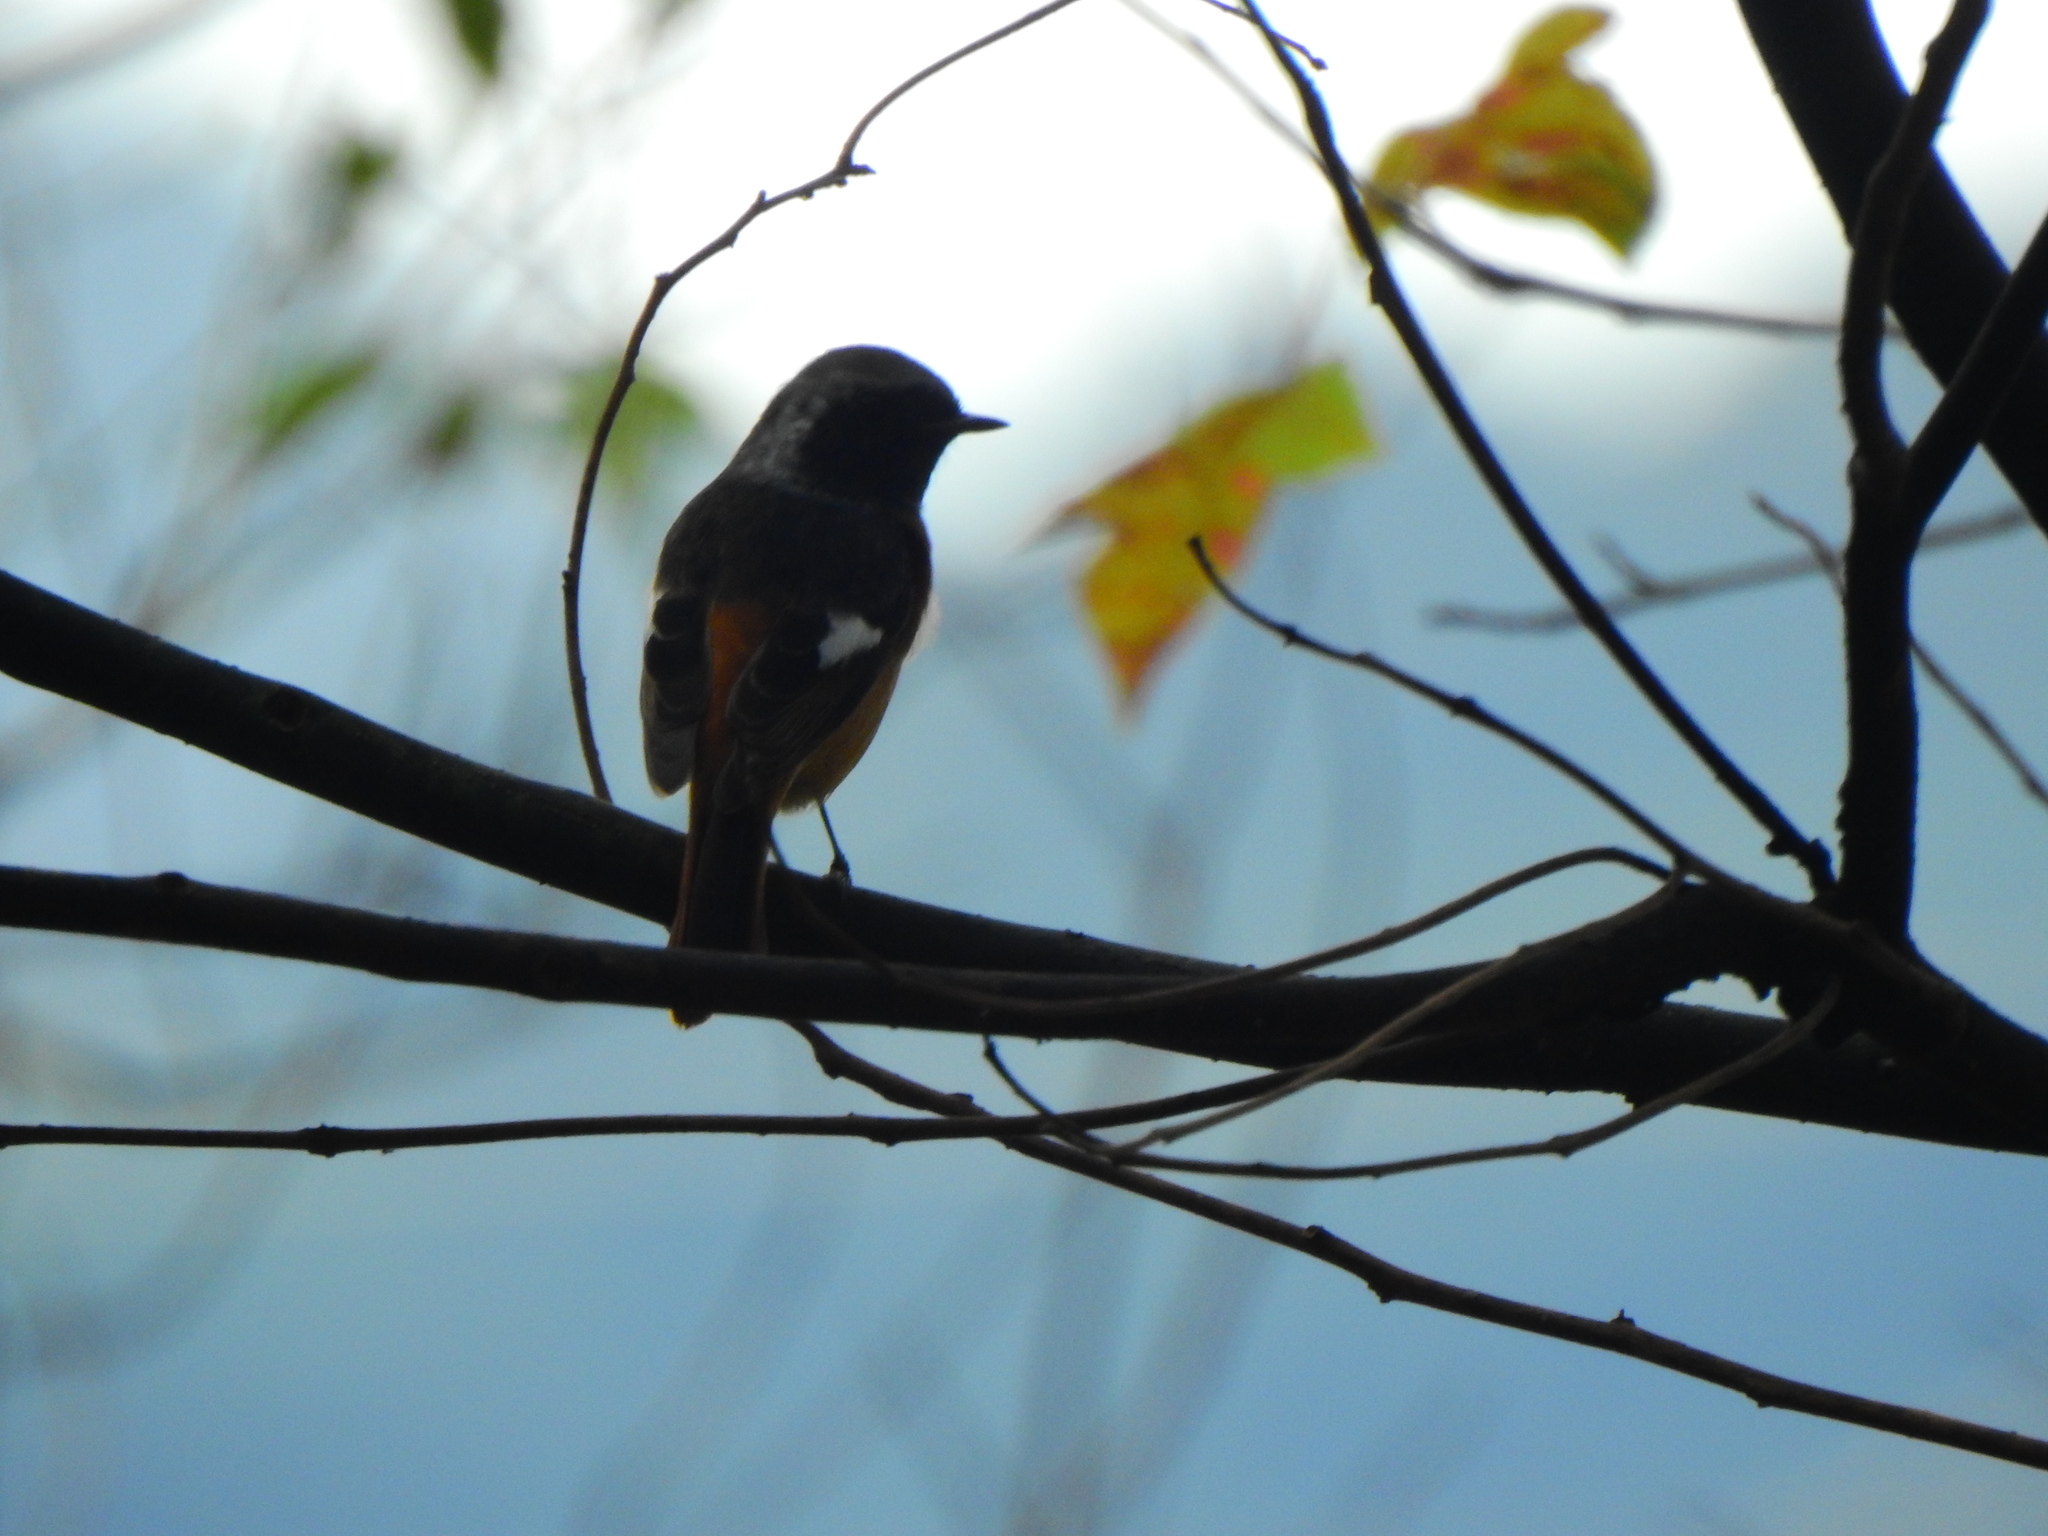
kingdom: Animalia
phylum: Chordata
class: Aves
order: Passeriformes
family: Muscicapidae
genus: Phoenicurus
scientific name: Phoenicurus auroreus
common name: Daurian redstart
